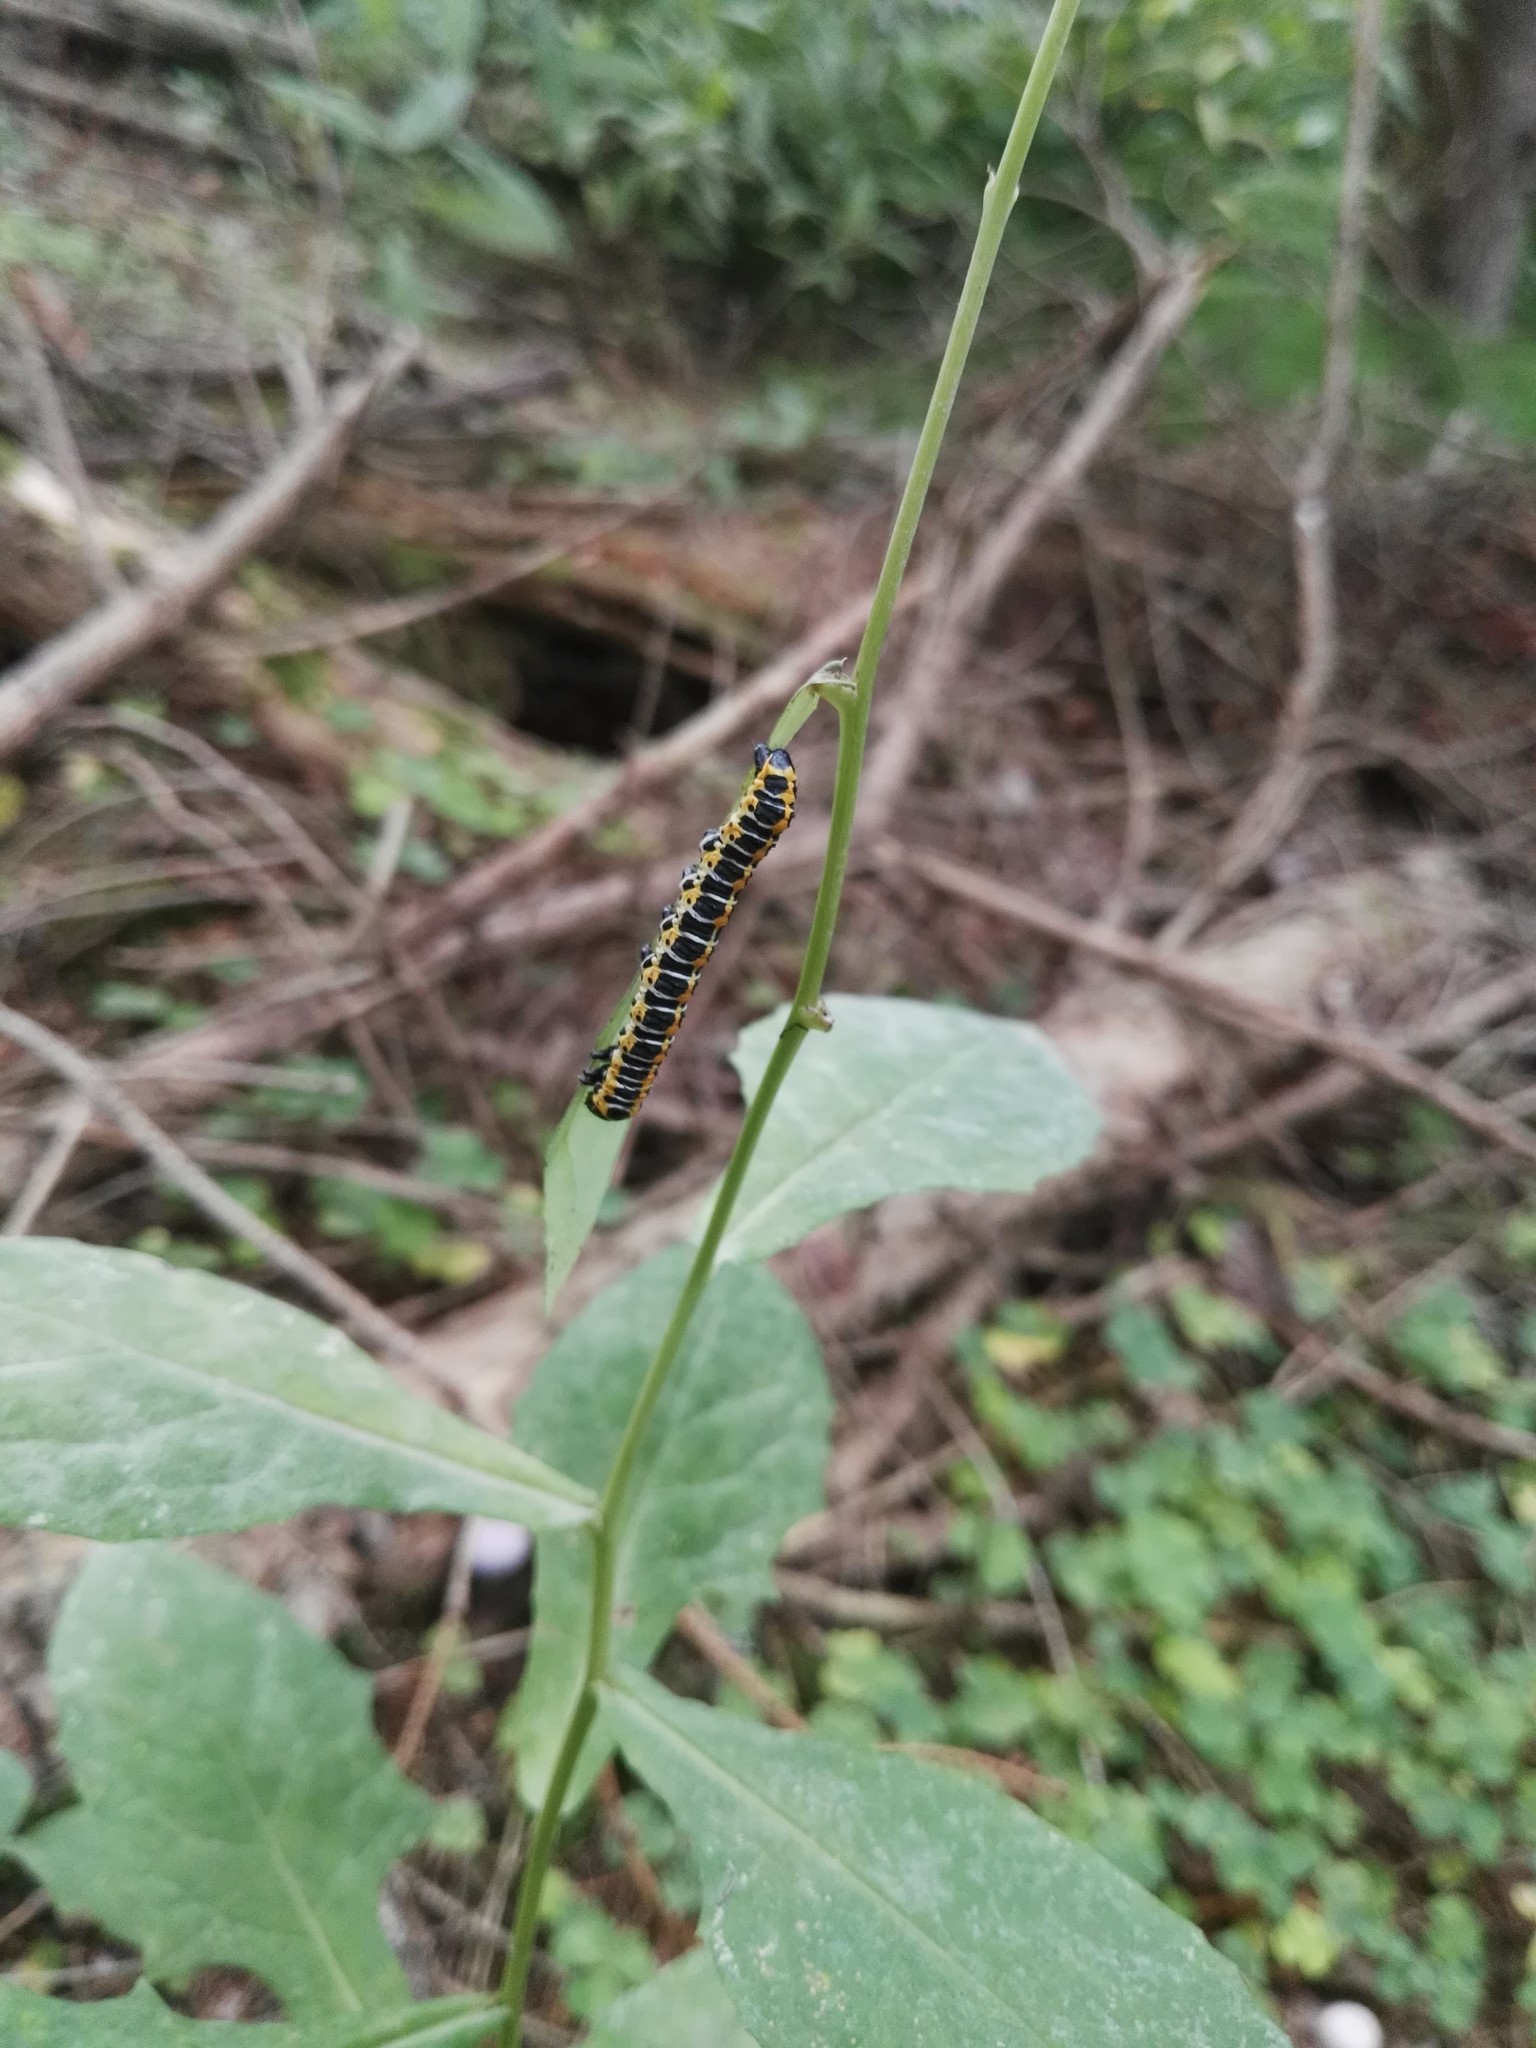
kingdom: Animalia
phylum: Arthropoda
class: Insecta
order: Lepidoptera
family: Noctuidae
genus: Cucullia
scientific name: Cucullia lactucae
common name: Lettuce shark
